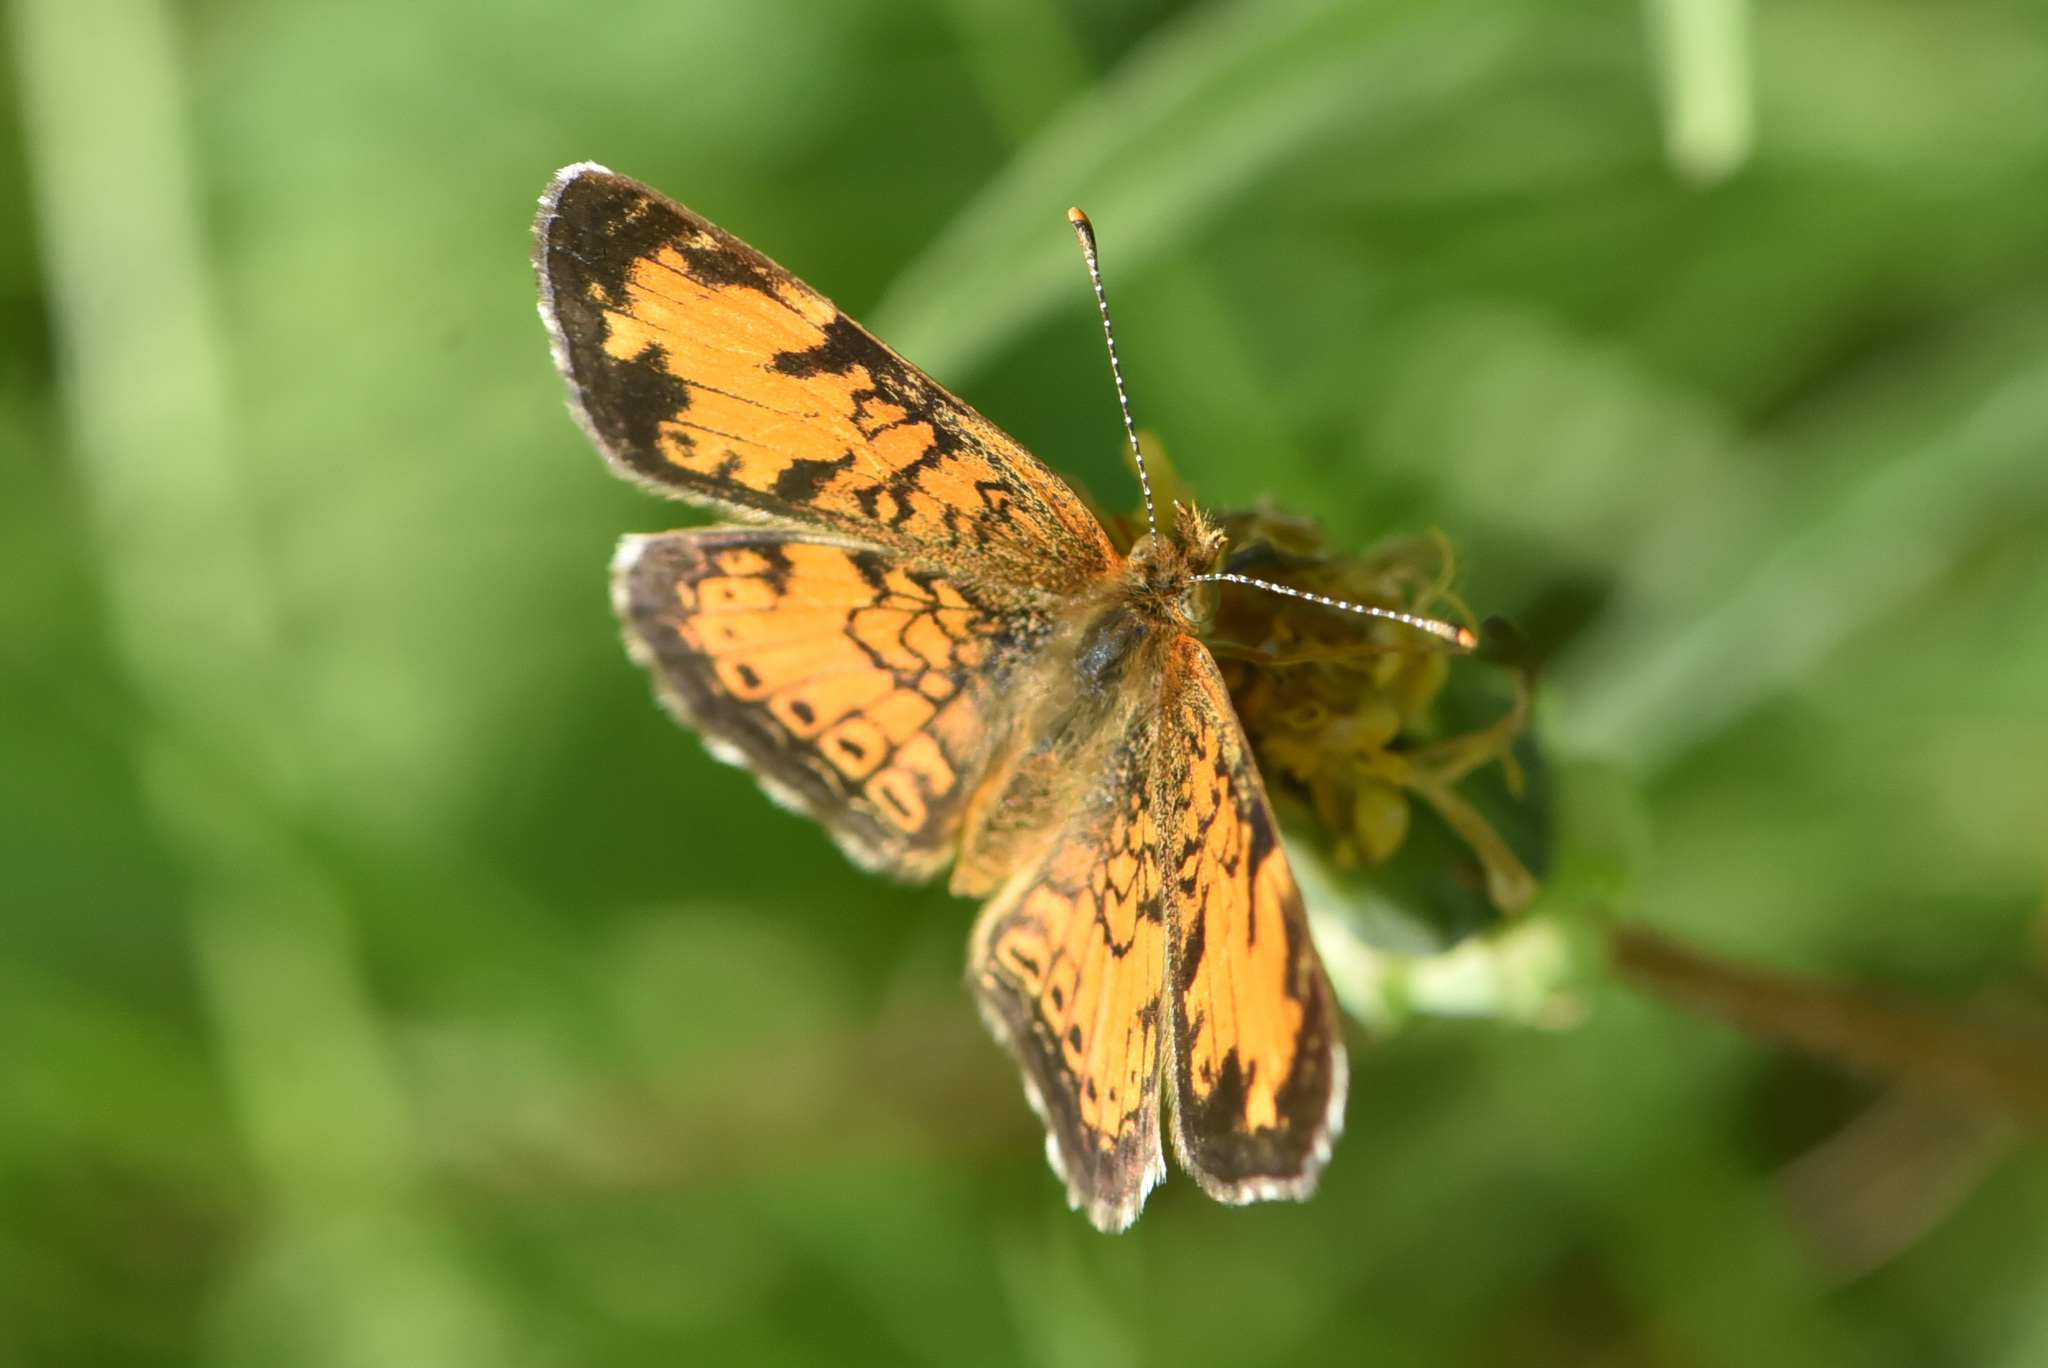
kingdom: Animalia
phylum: Arthropoda
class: Insecta
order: Lepidoptera
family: Nymphalidae
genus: Phyciodes
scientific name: Phyciodes tharos
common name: Pearl crescent
